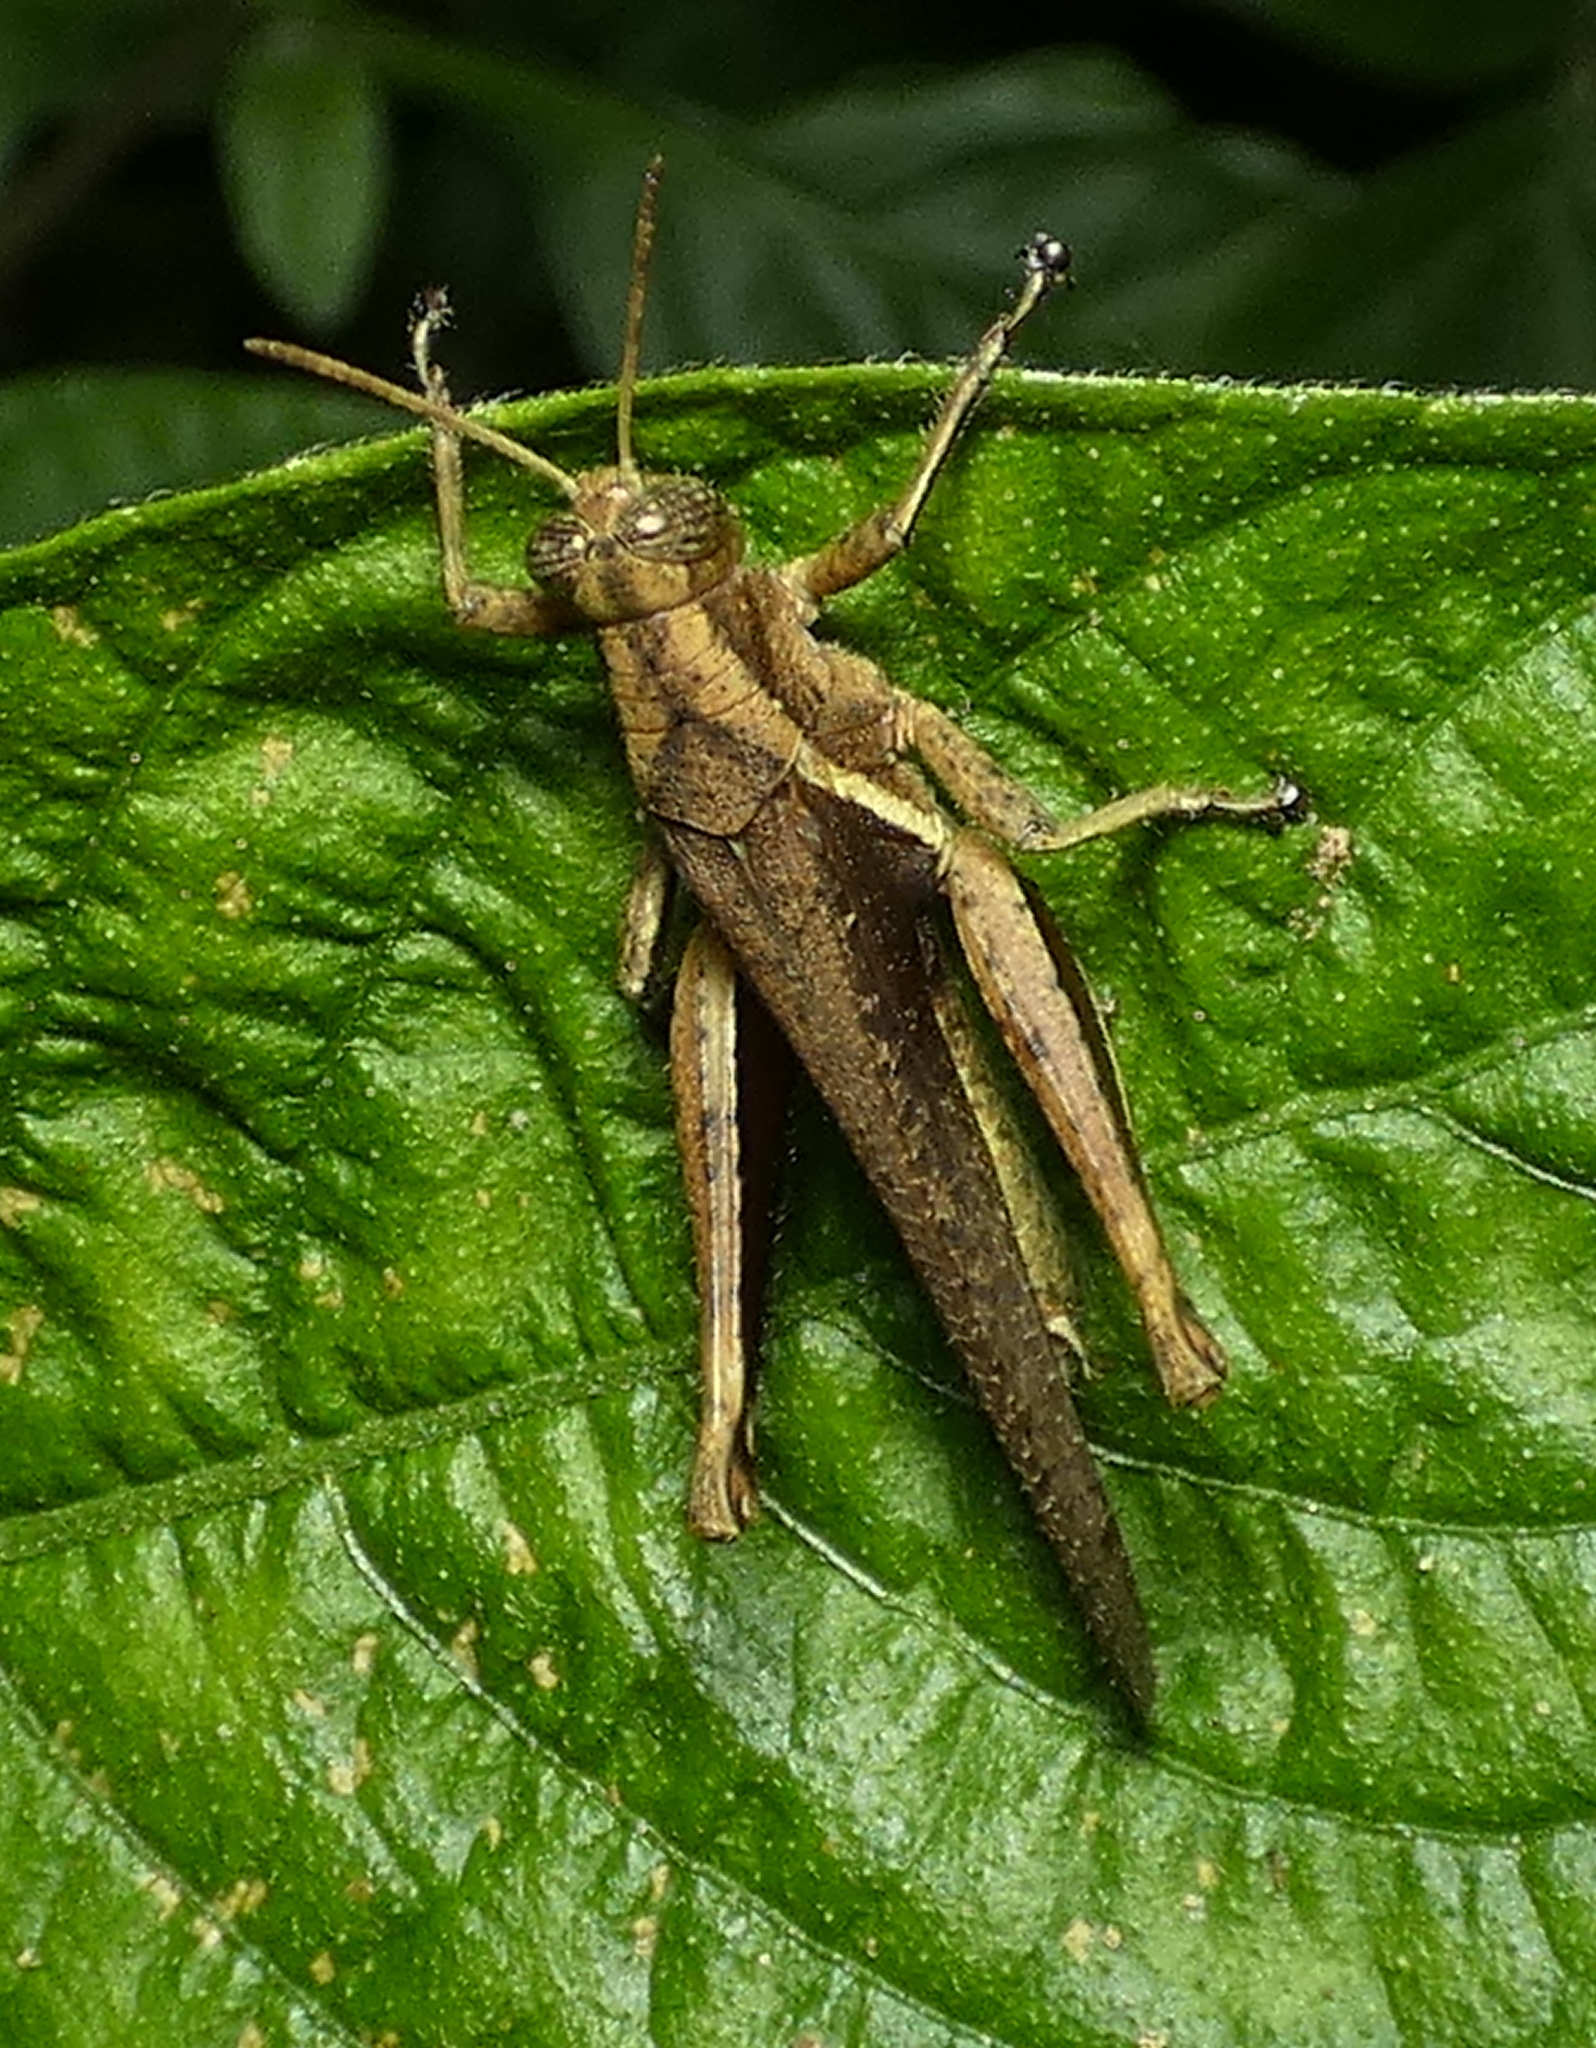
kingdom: Animalia
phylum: Arthropoda
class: Insecta
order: Orthoptera
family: Acrididae
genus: Abracris
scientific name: Abracris flavolineata
